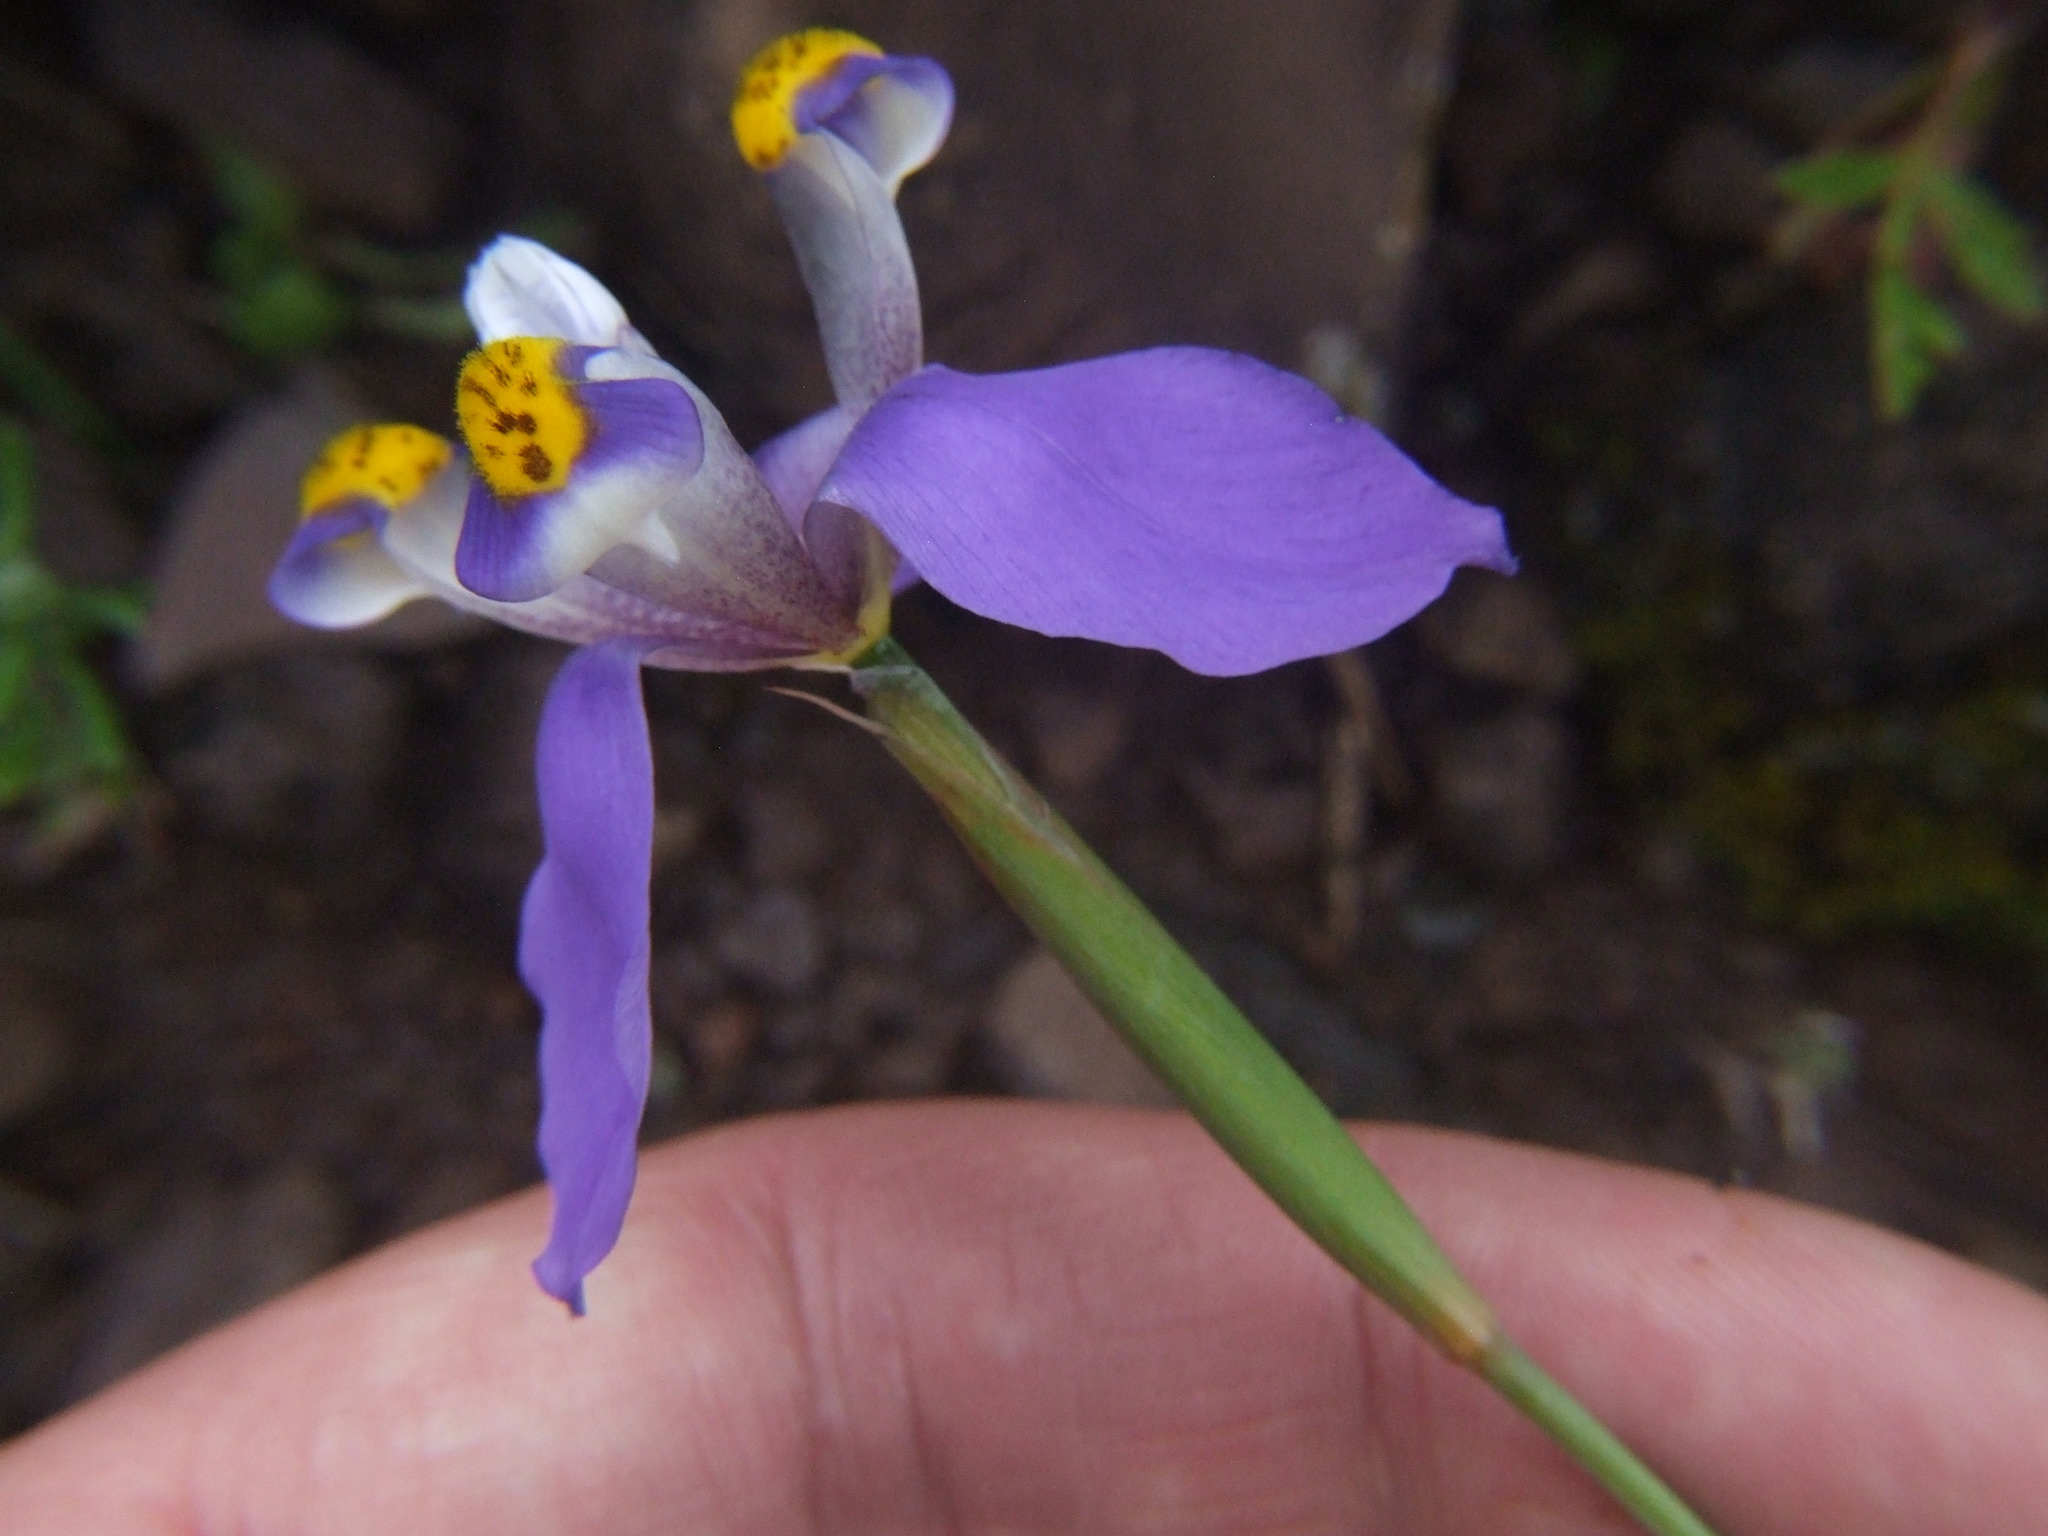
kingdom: Plantae
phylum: Tracheophyta
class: Liliopsida
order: Asparagales
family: Iridaceae
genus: Hesperoxiphion
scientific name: Hesperoxiphion herrerae
